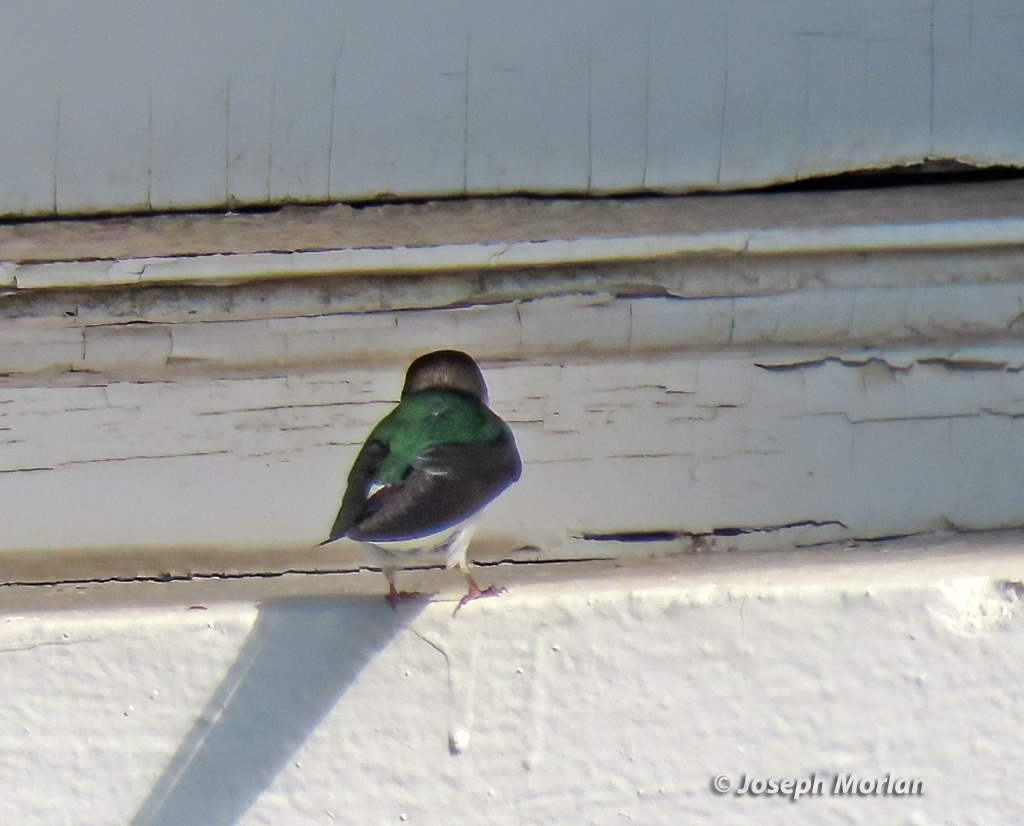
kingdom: Animalia
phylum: Chordata
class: Aves
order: Passeriformes
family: Hirundinidae
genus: Tachycineta
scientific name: Tachycineta thalassina
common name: Violet-green swallow
